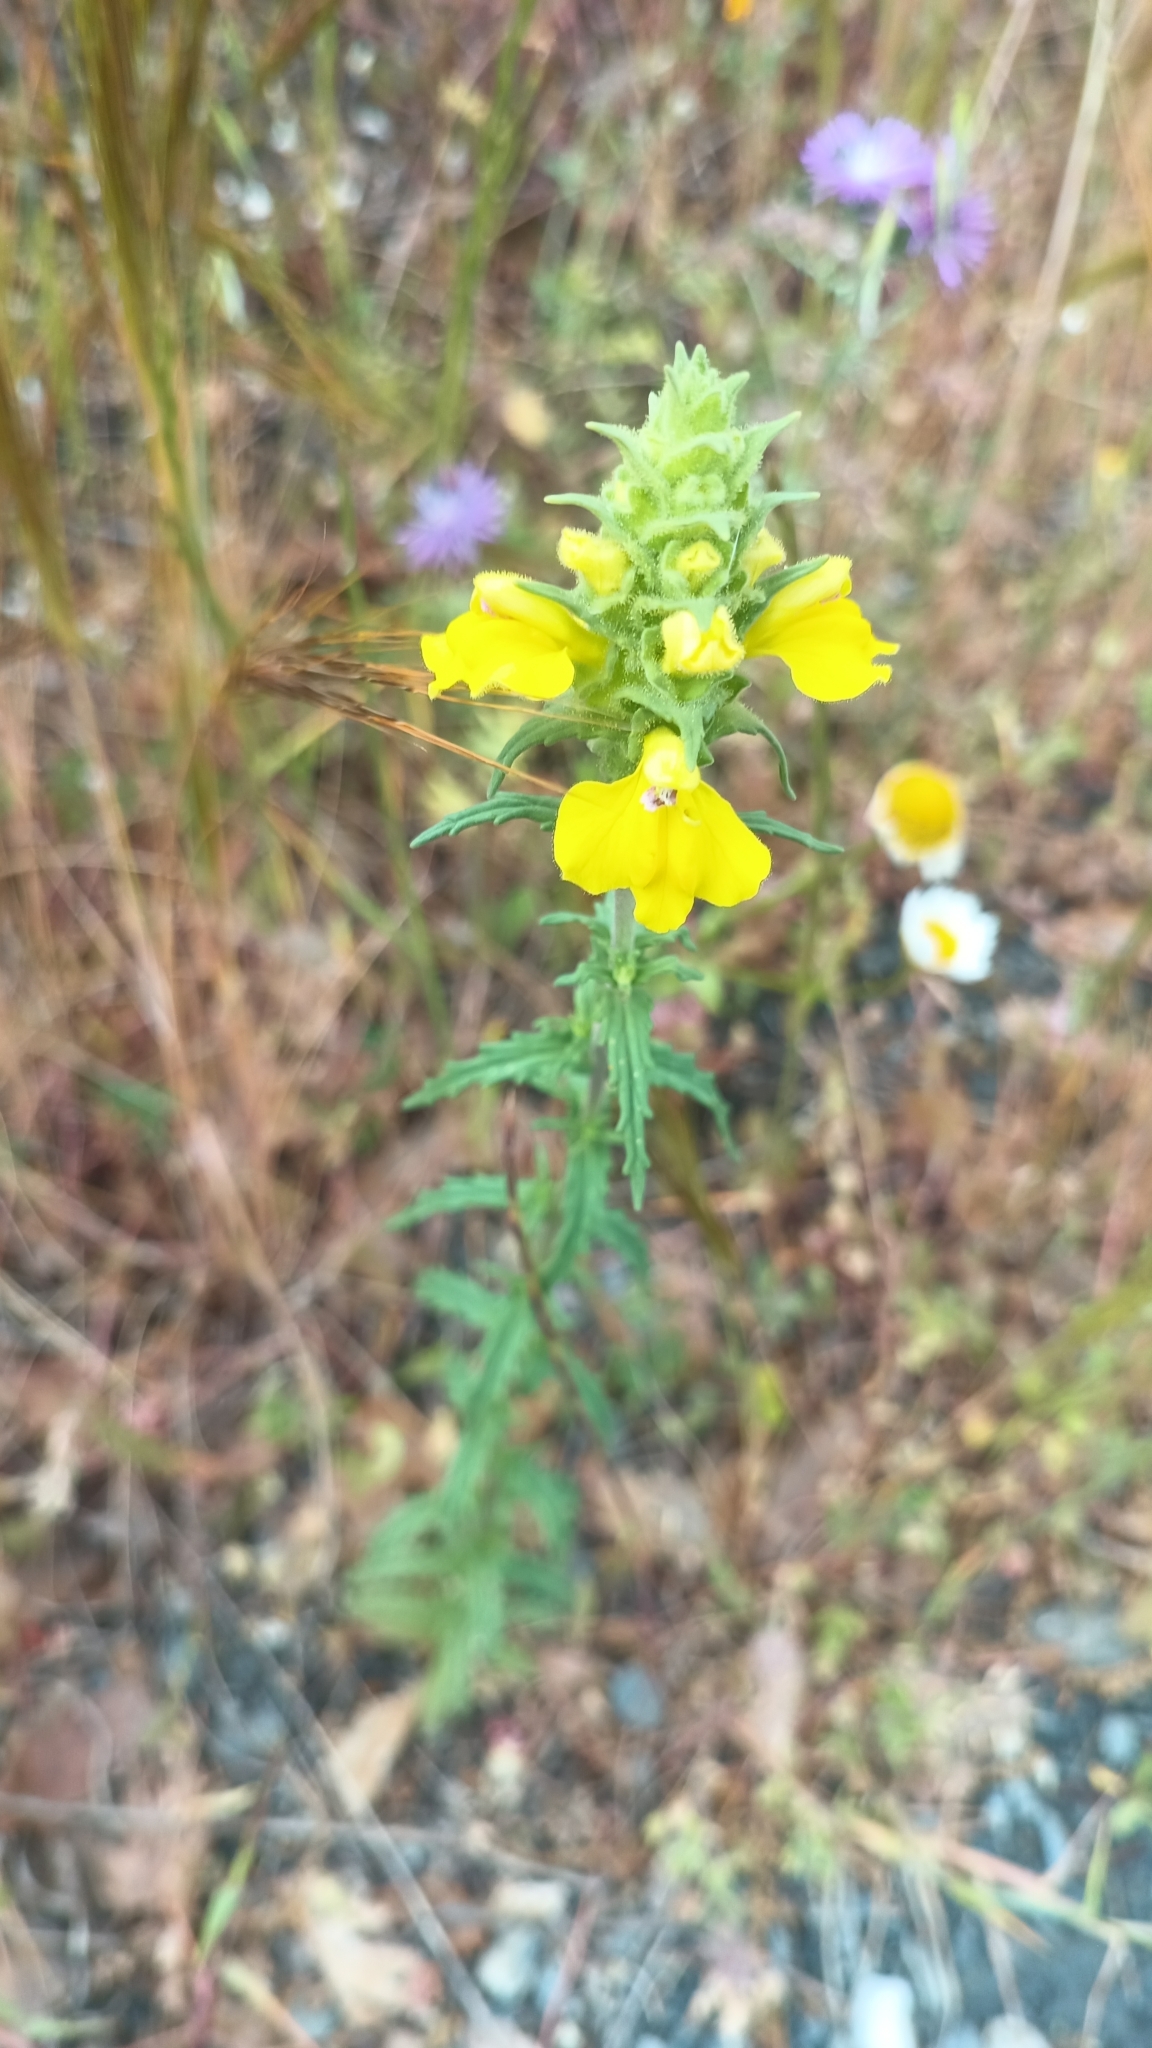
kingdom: Plantae
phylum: Tracheophyta
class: Magnoliopsida
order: Lamiales
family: Orobanchaceae
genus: Bellardia
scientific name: Bellardia viscosa
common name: Sticky parentucellia
